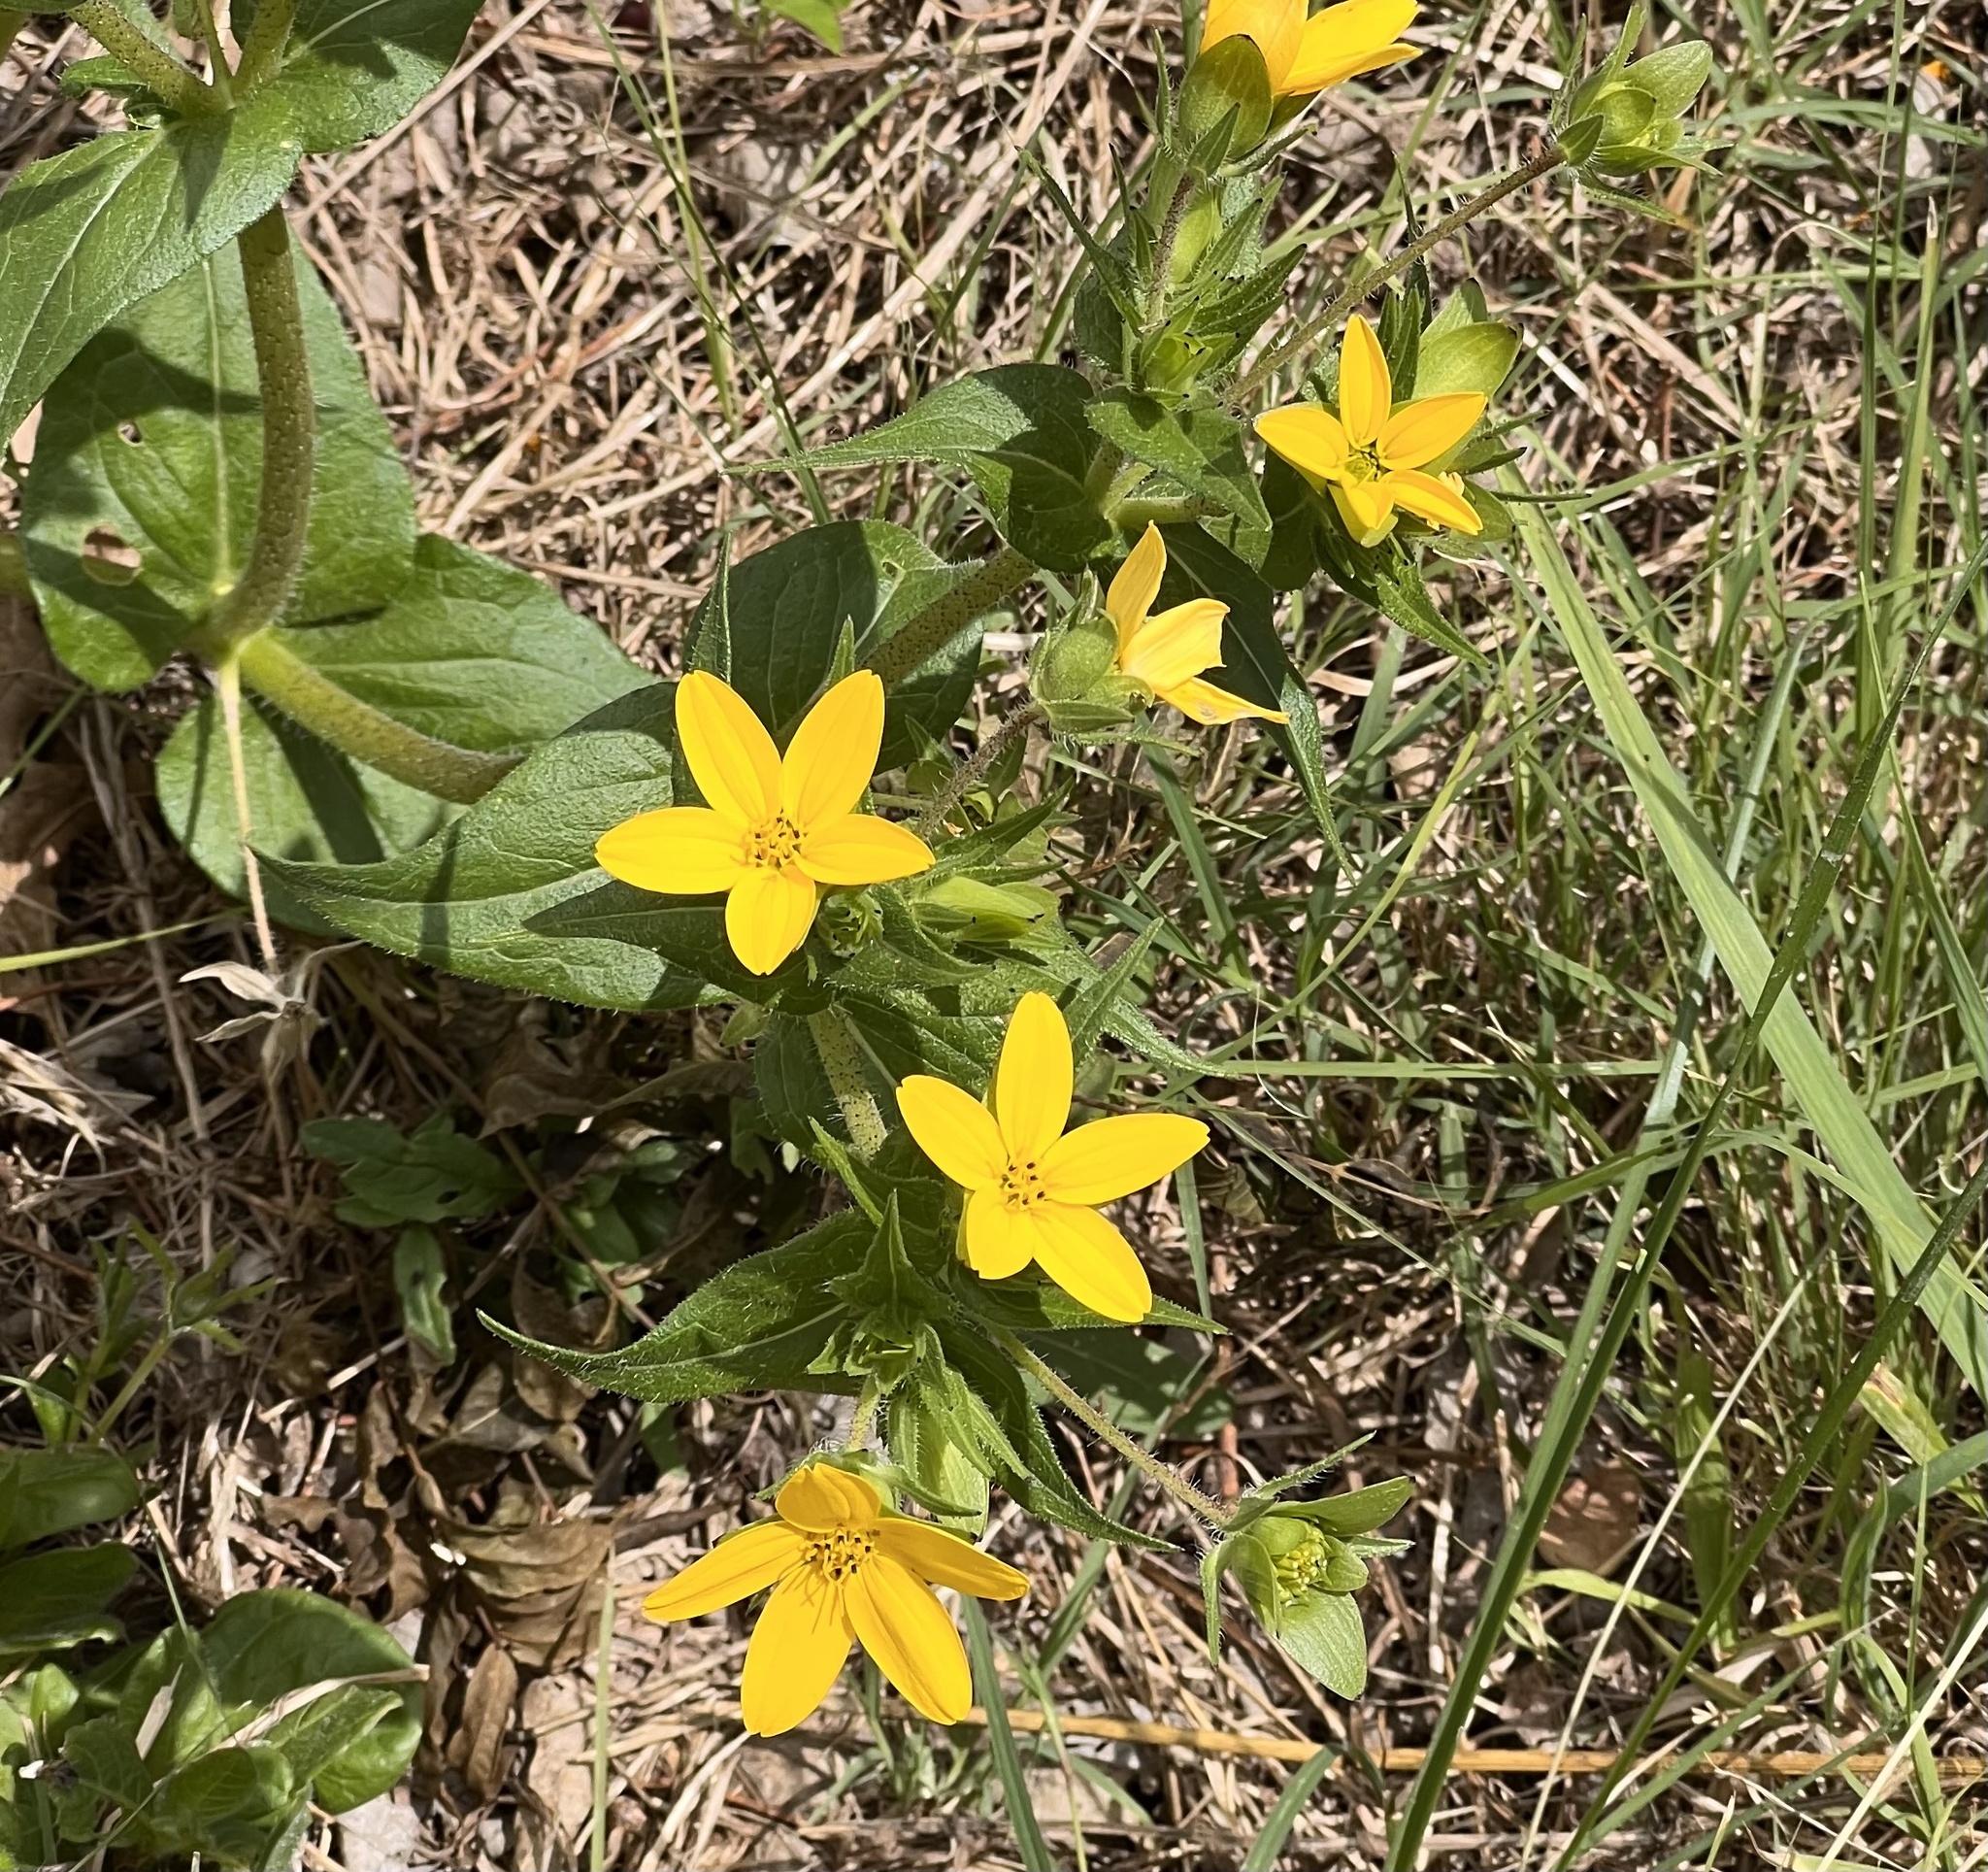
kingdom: Plantae
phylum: Tracheophyta
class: Magnoliopsida
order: Asterales
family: Asteraceae
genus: Lindheimera
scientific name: Lindheimera texana
